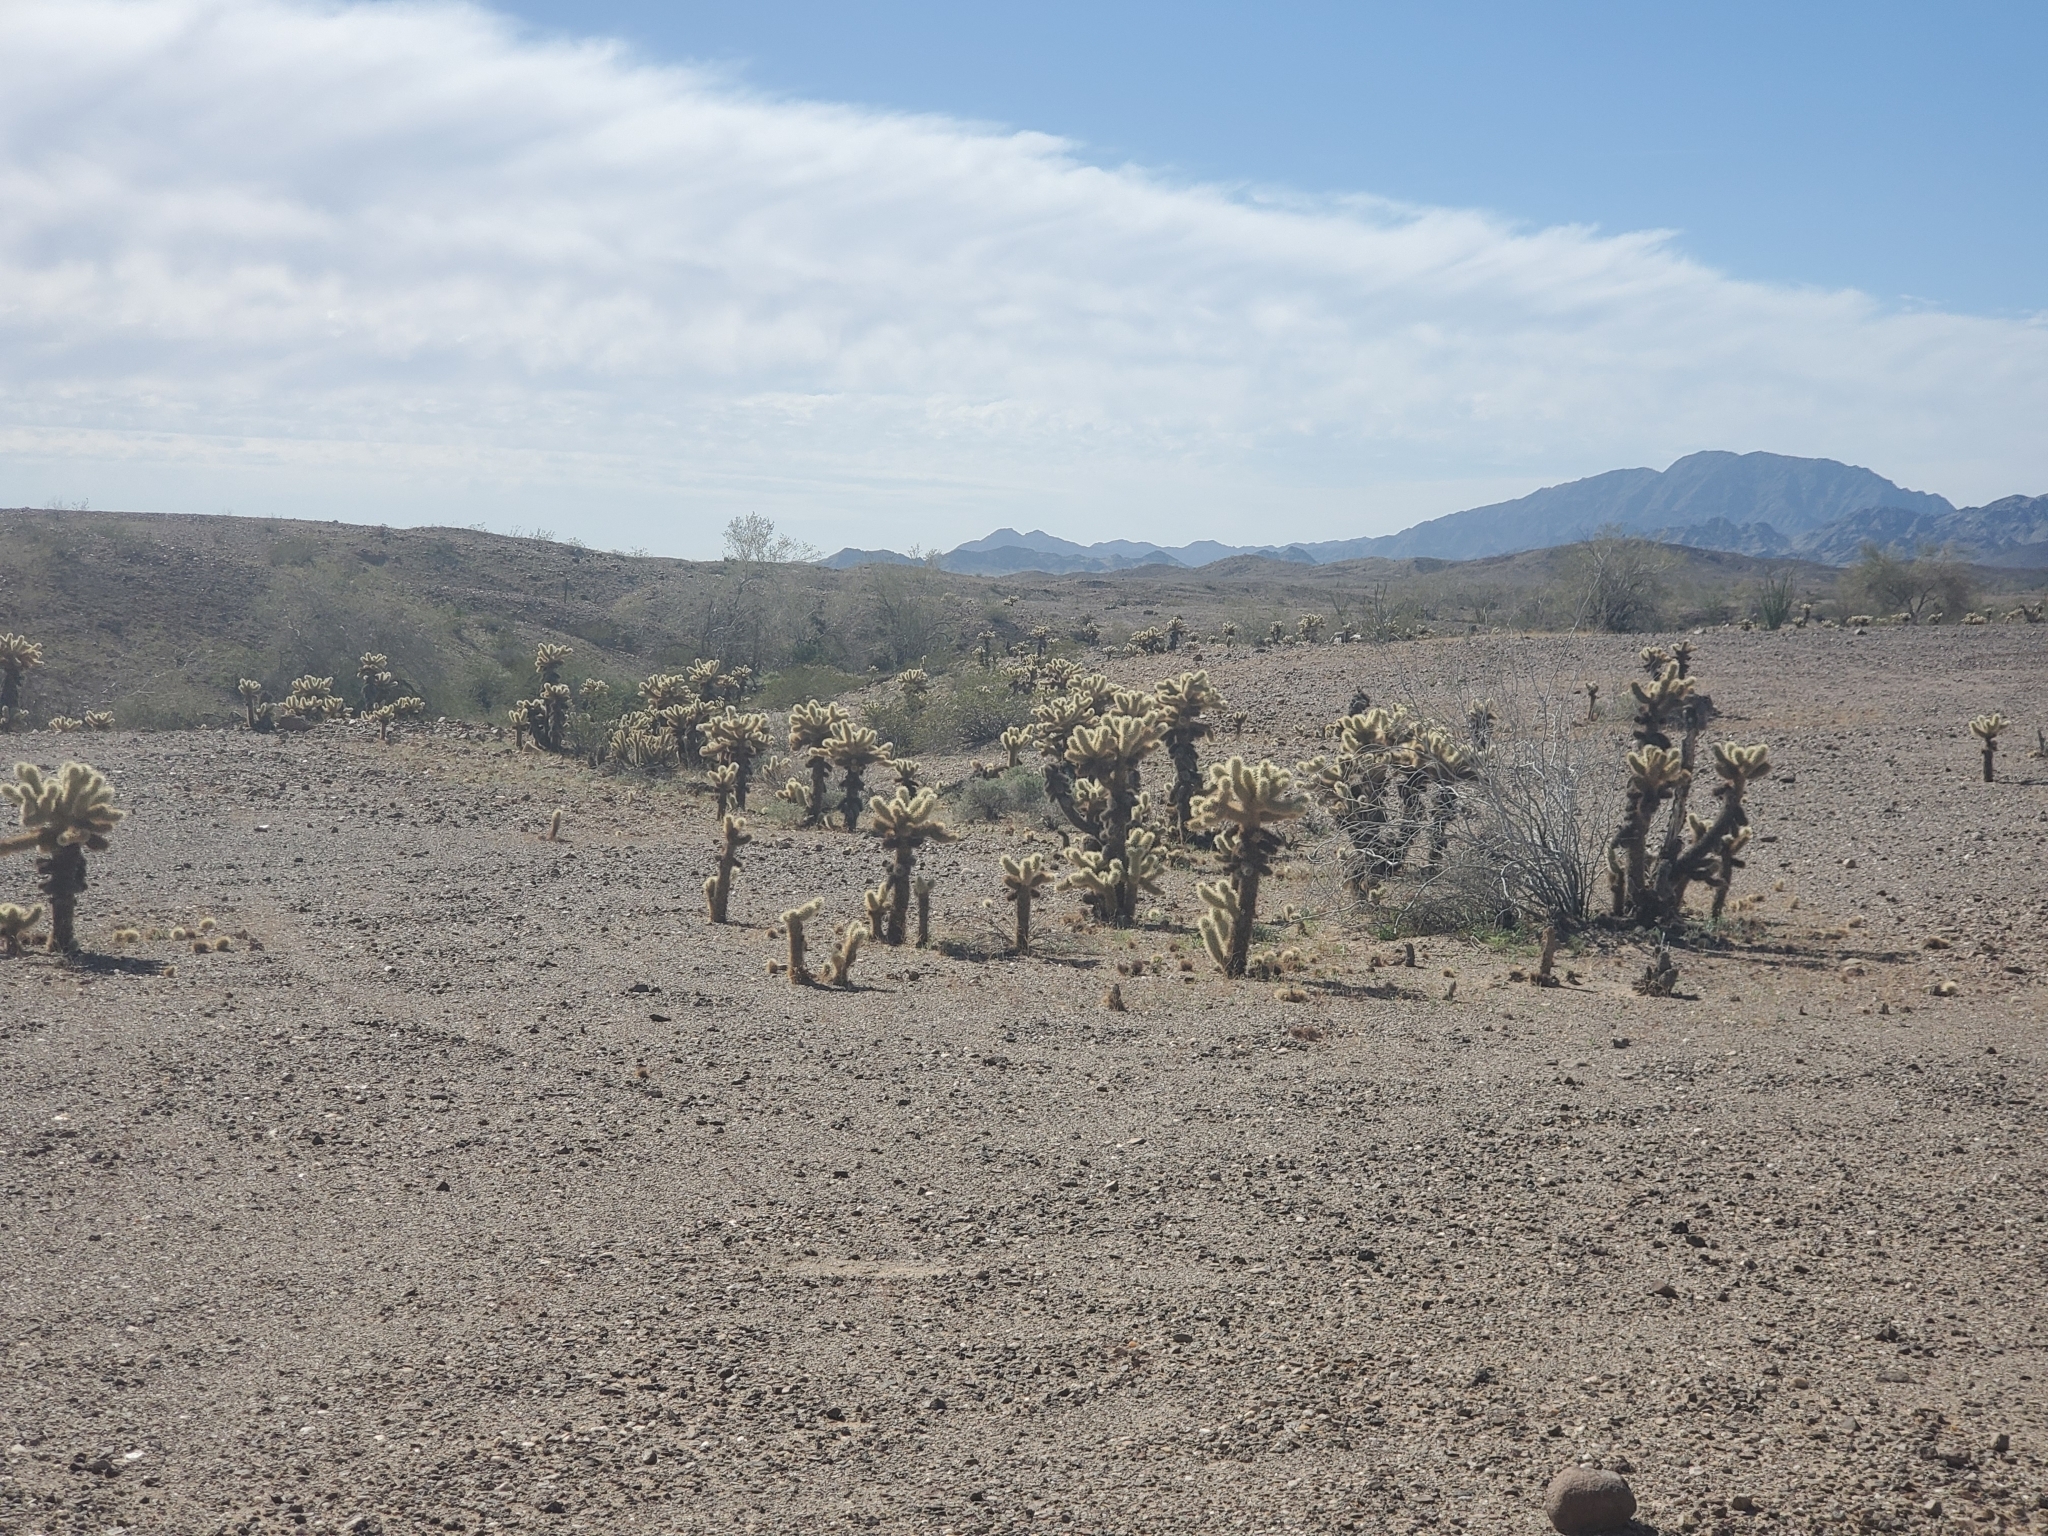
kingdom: Plantae
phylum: Tracheophyta
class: Magnoliopsida
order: Caryophyllales
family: Cactaceae
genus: Cylindropuntia
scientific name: Cylindropuntia fosbergii
